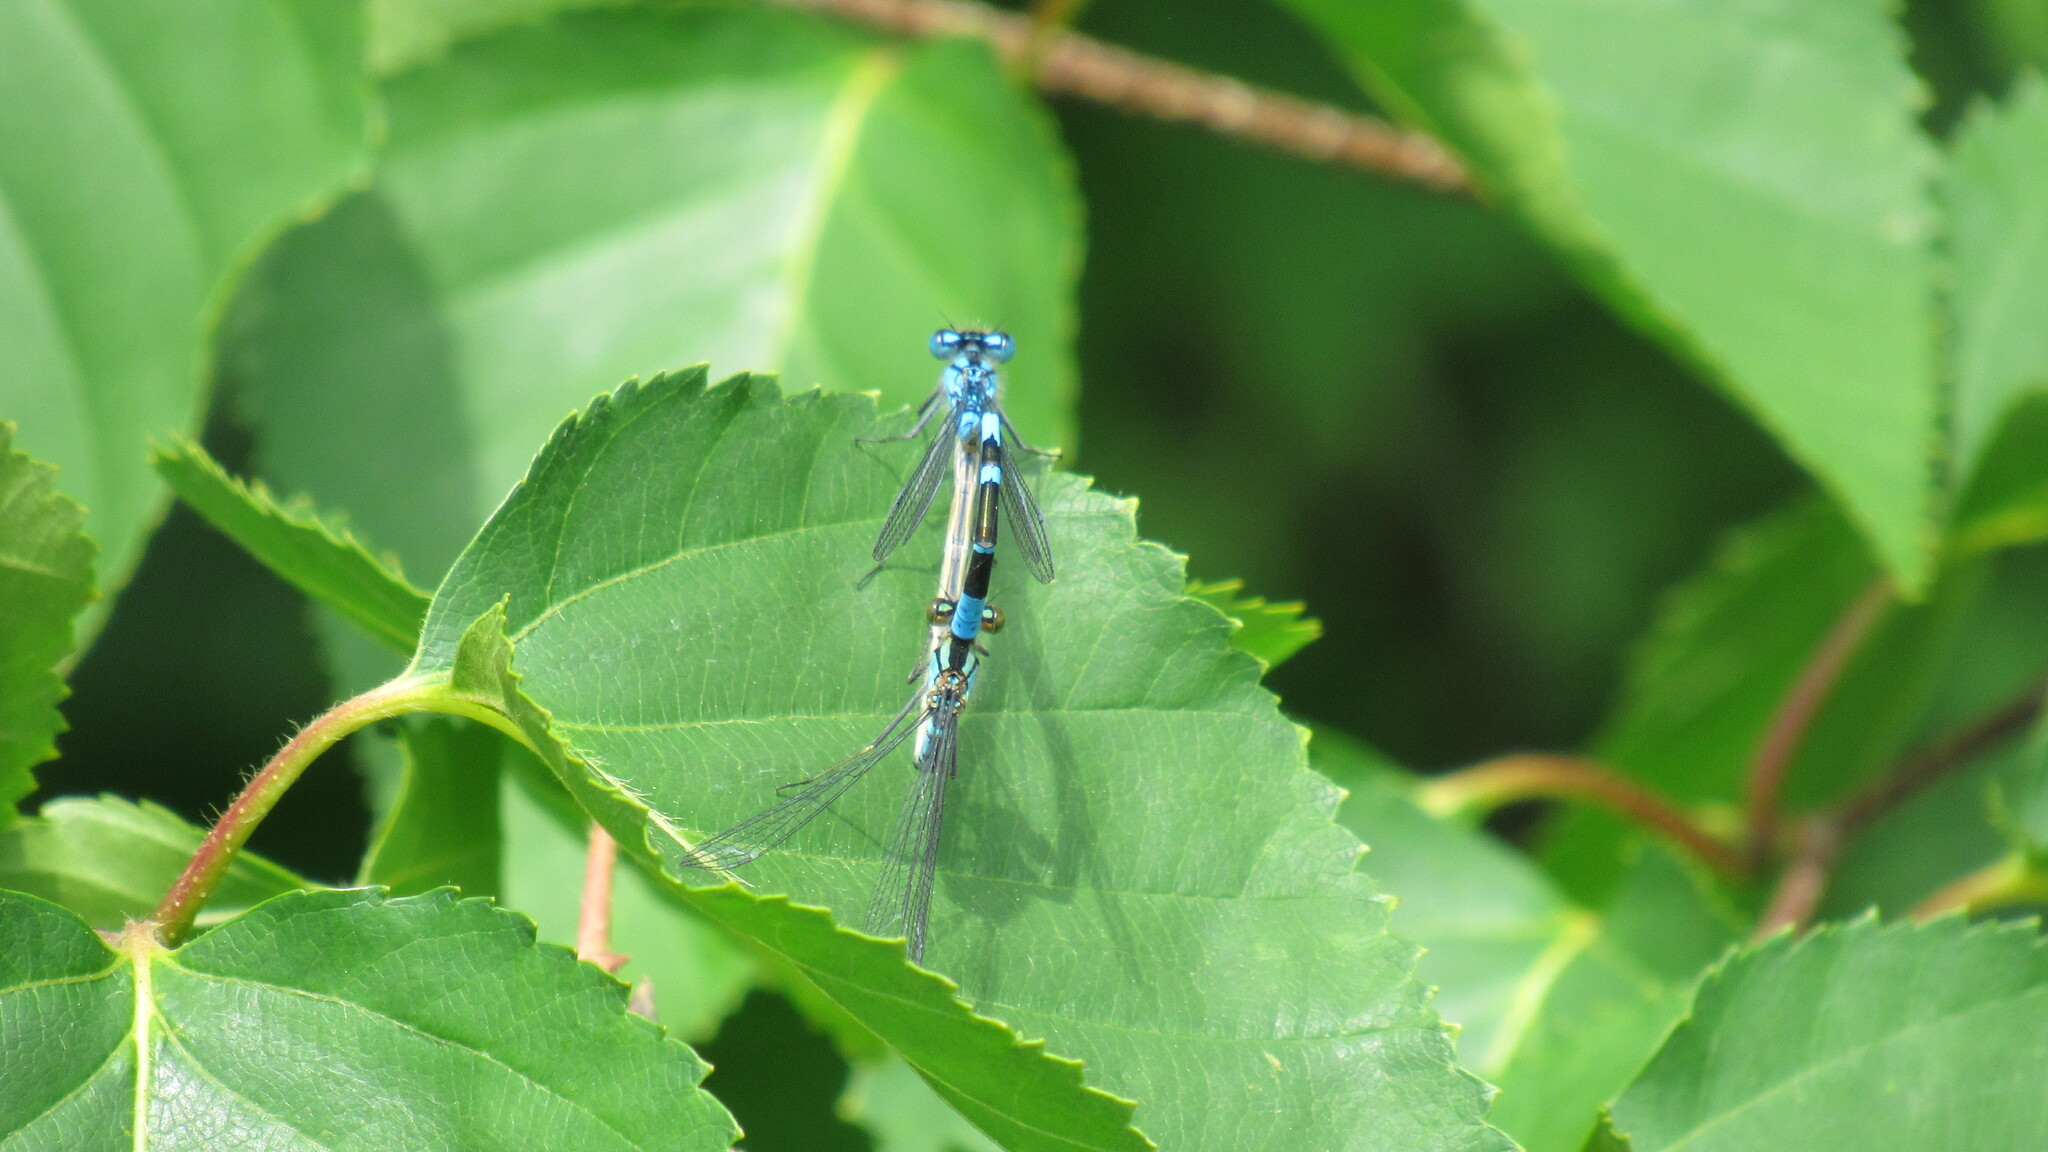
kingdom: Animalia
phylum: Arthropoda
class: Insecta
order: Odonata
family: Coenagrionidae
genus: Enallagma
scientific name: Enallagma cyathigerum
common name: Common blue damselfly
